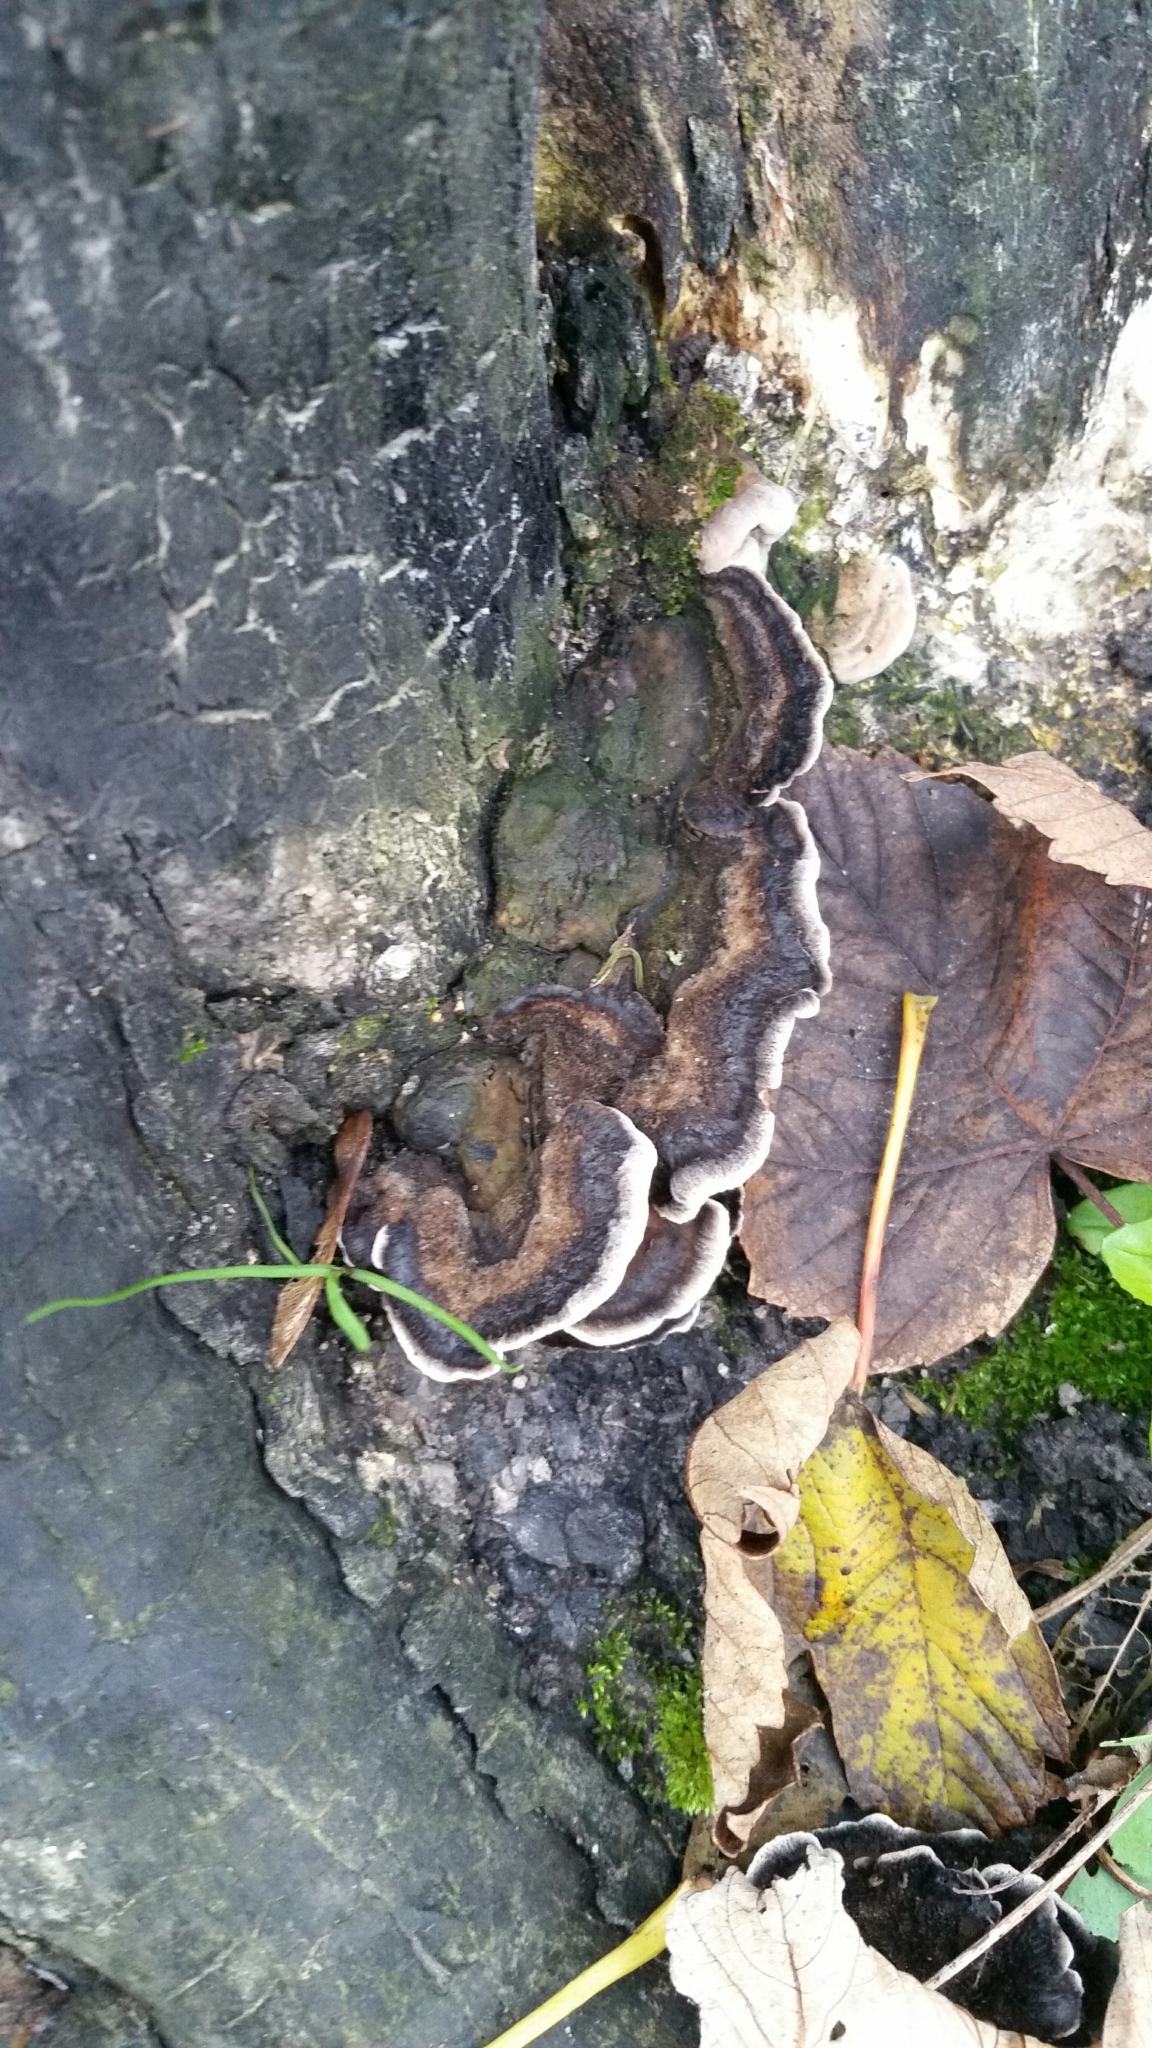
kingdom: Fungi
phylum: Basidiomycota
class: Agaricomycetes
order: Polyporales
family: Phanerochaetaceae
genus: Bjerkandera
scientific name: Bjerkandera adusta
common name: Smoky bracket
